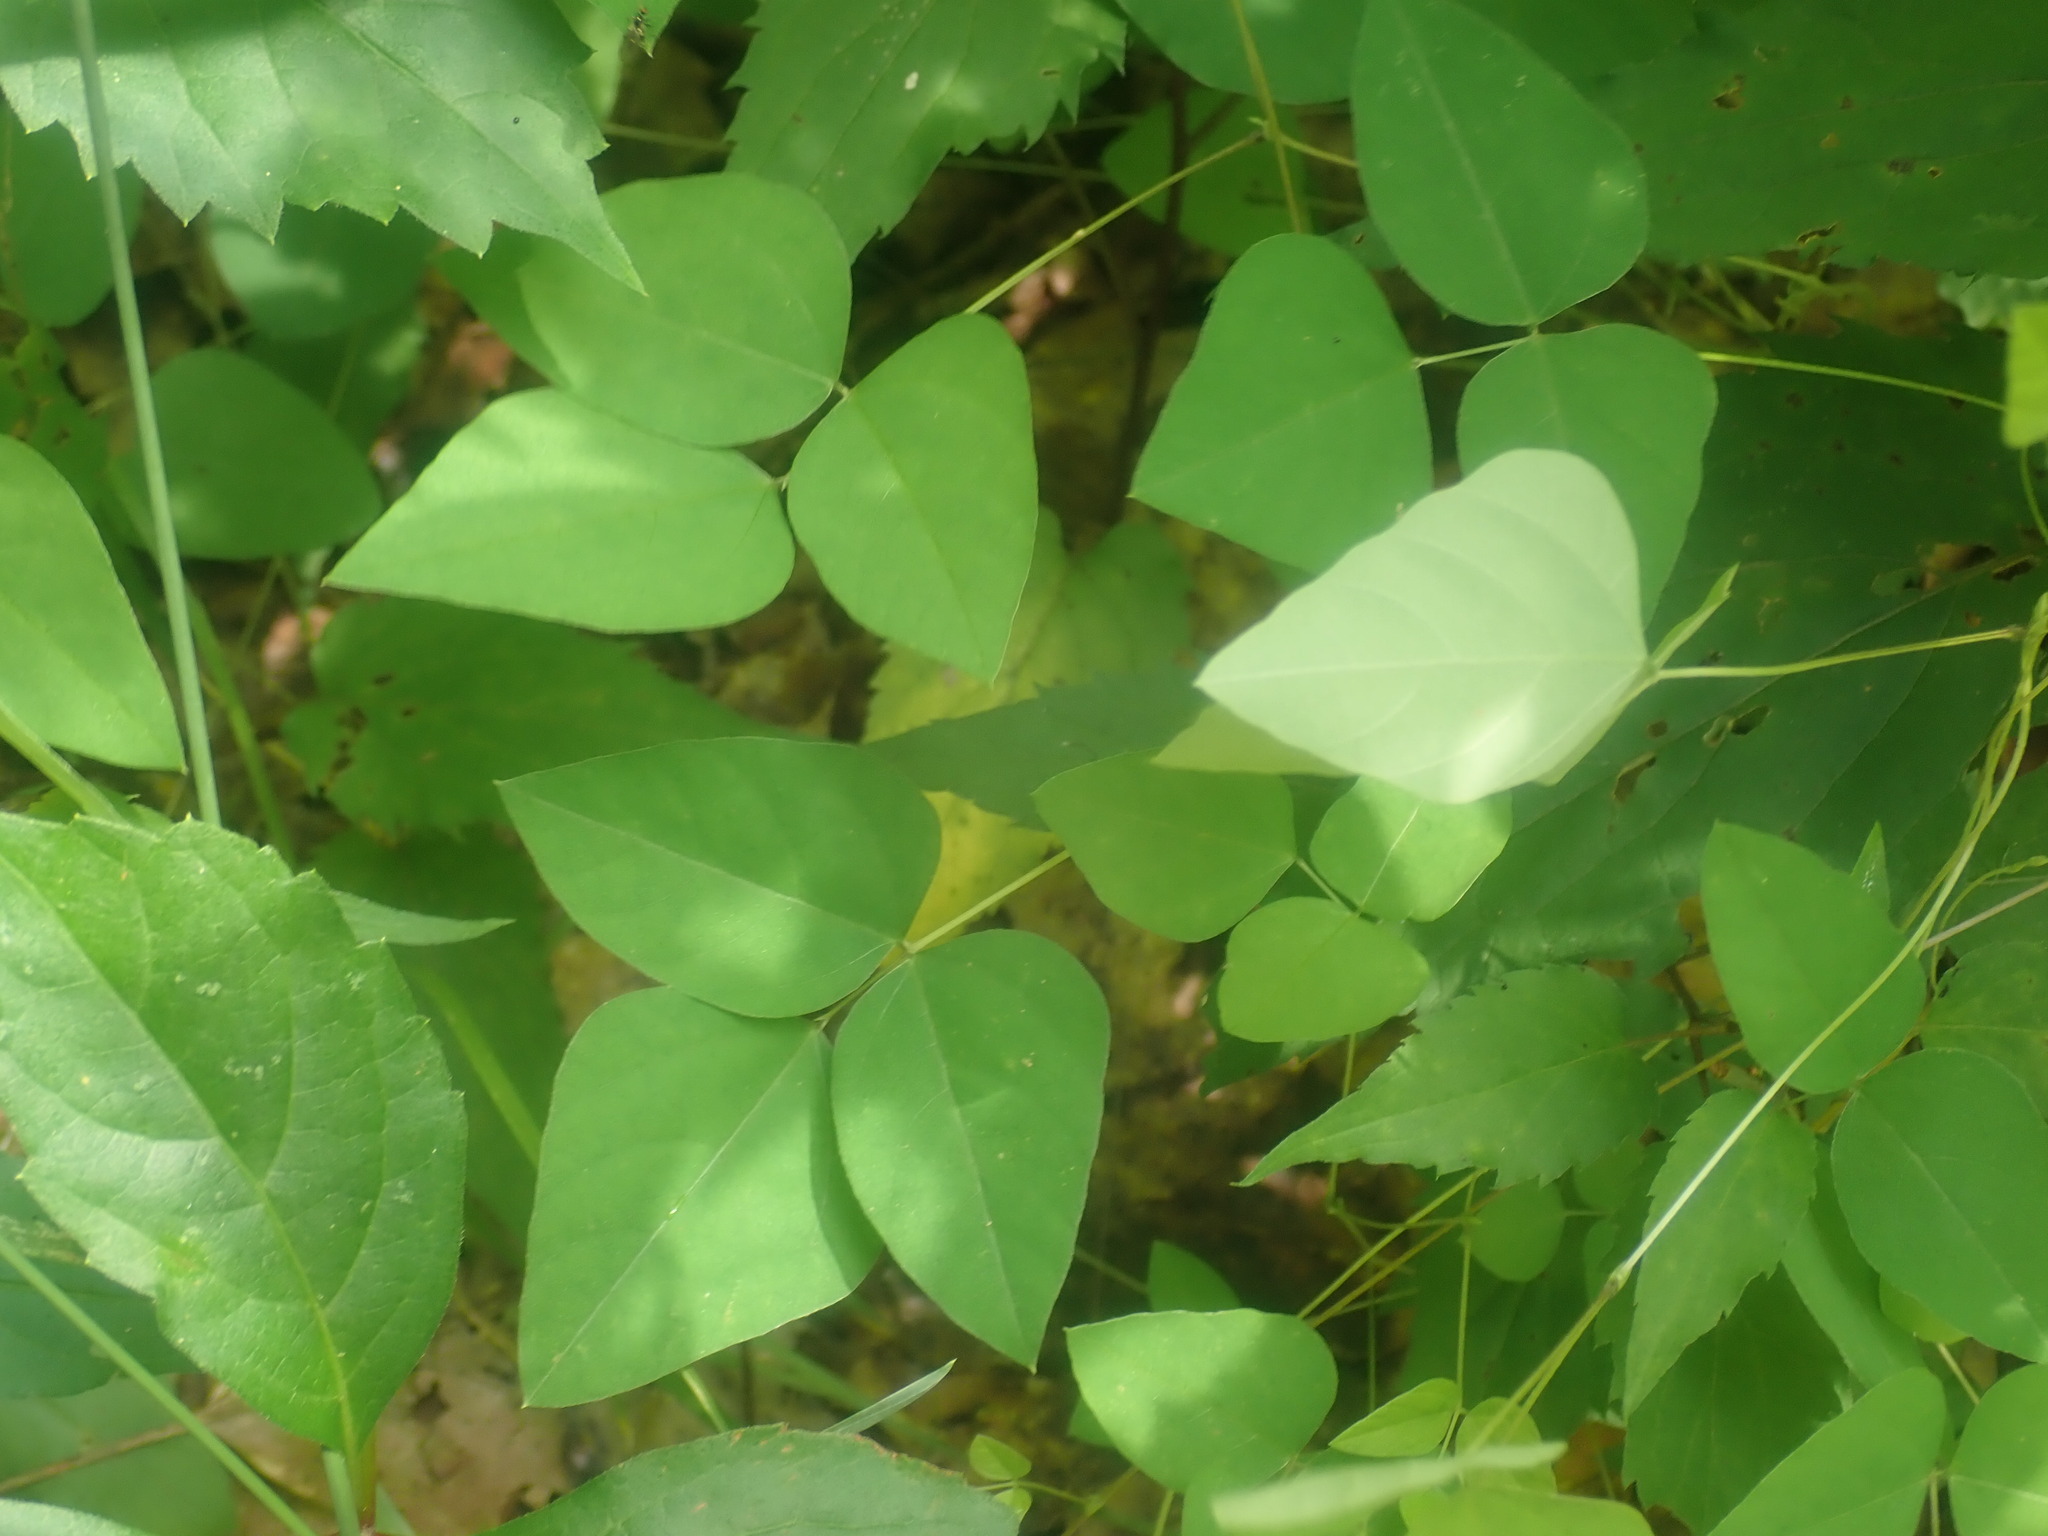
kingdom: Plantae
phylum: Tracheophyta
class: Magnoliopsida
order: Fabales
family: Fabaceae
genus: Amphicarpaea
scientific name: Amphicarpaea bracteata
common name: American hog peanut
